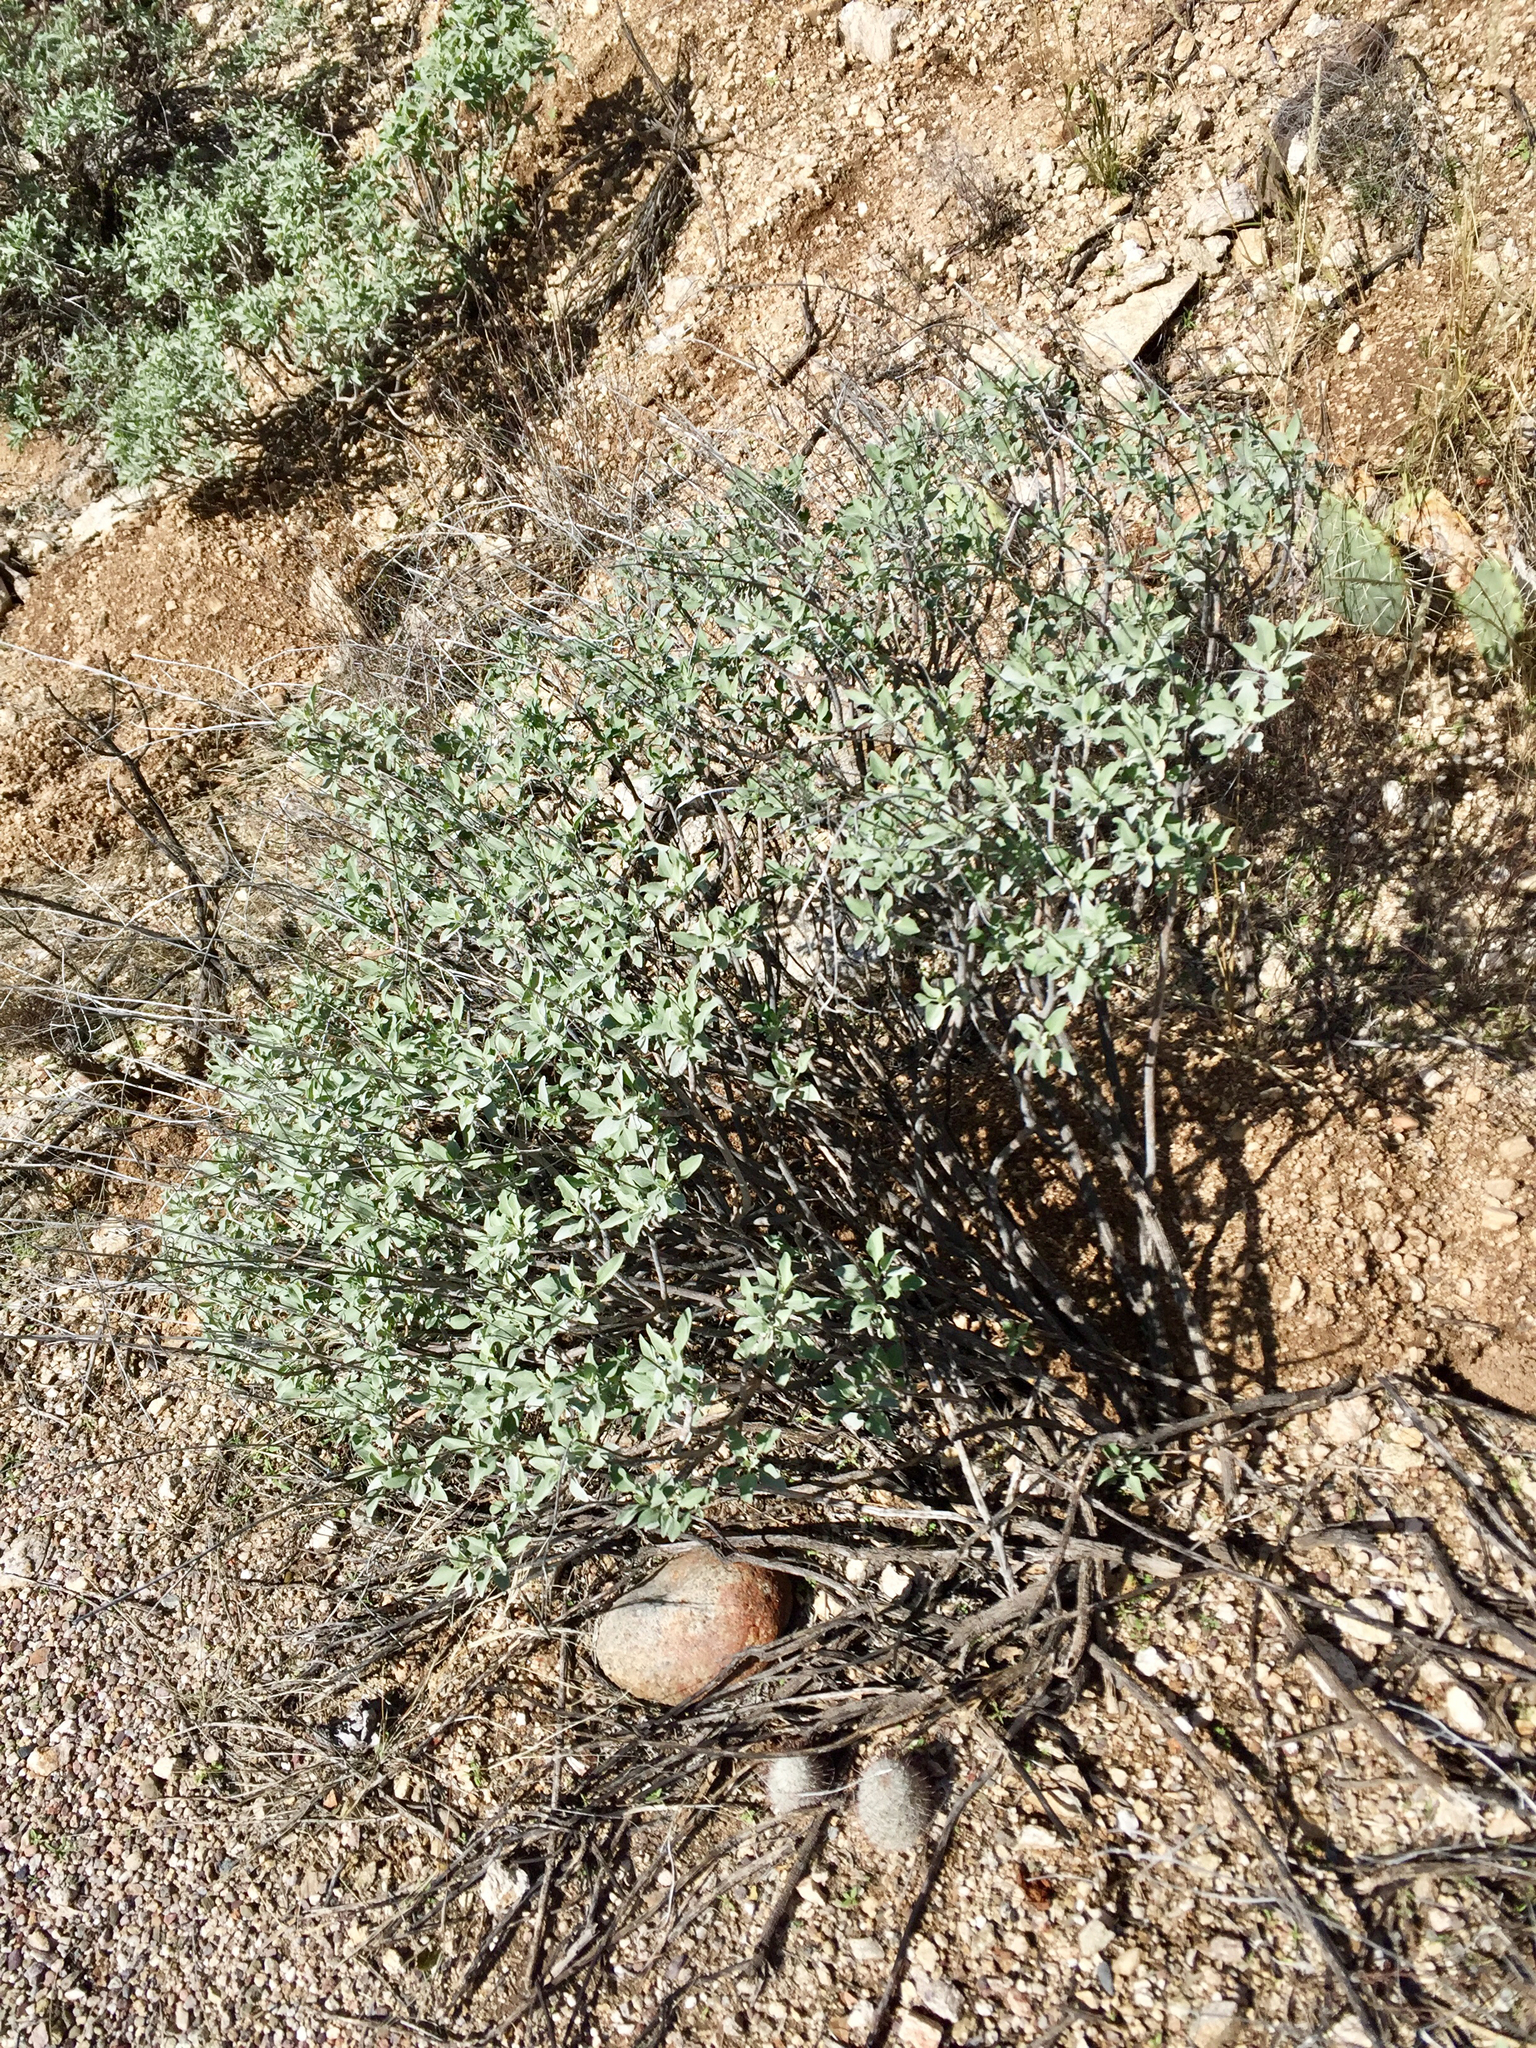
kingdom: Plantae
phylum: Tracheophyta
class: Magnoliopsida
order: Asterales
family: Asteraceae
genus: Encelia
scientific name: Encelia farinosa
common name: Brittlebush
